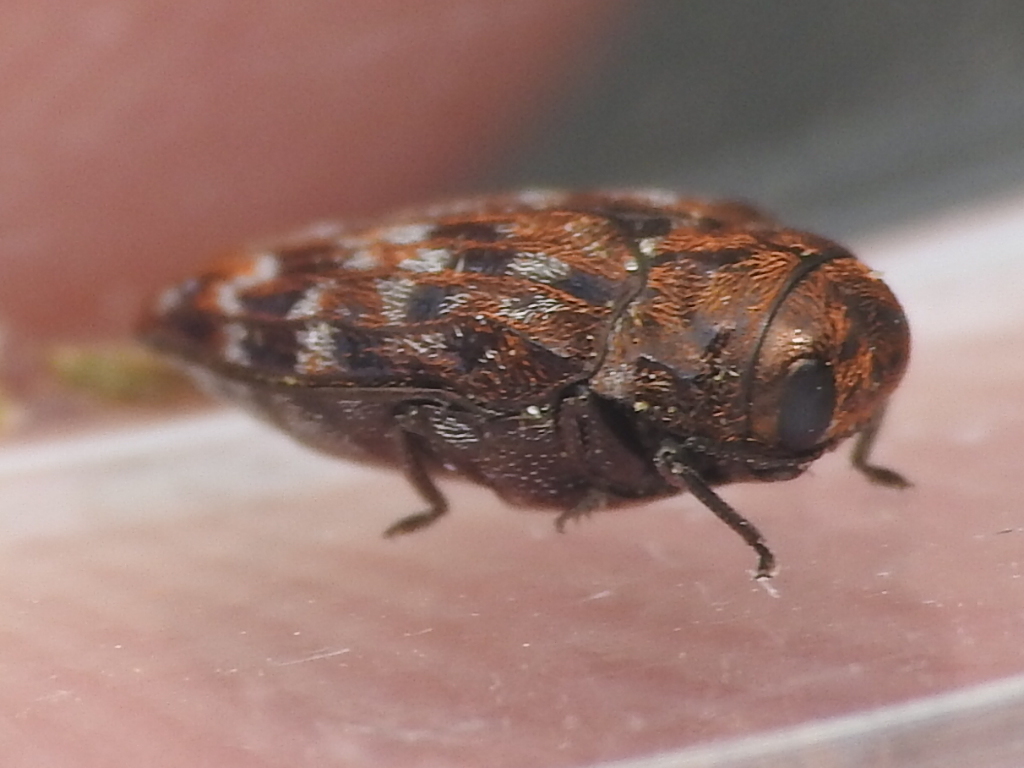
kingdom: Animalia
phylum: Arthropoda
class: Insecta
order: Coleoptera
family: Buprestidae
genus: Brachys
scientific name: Brachys ovatus
